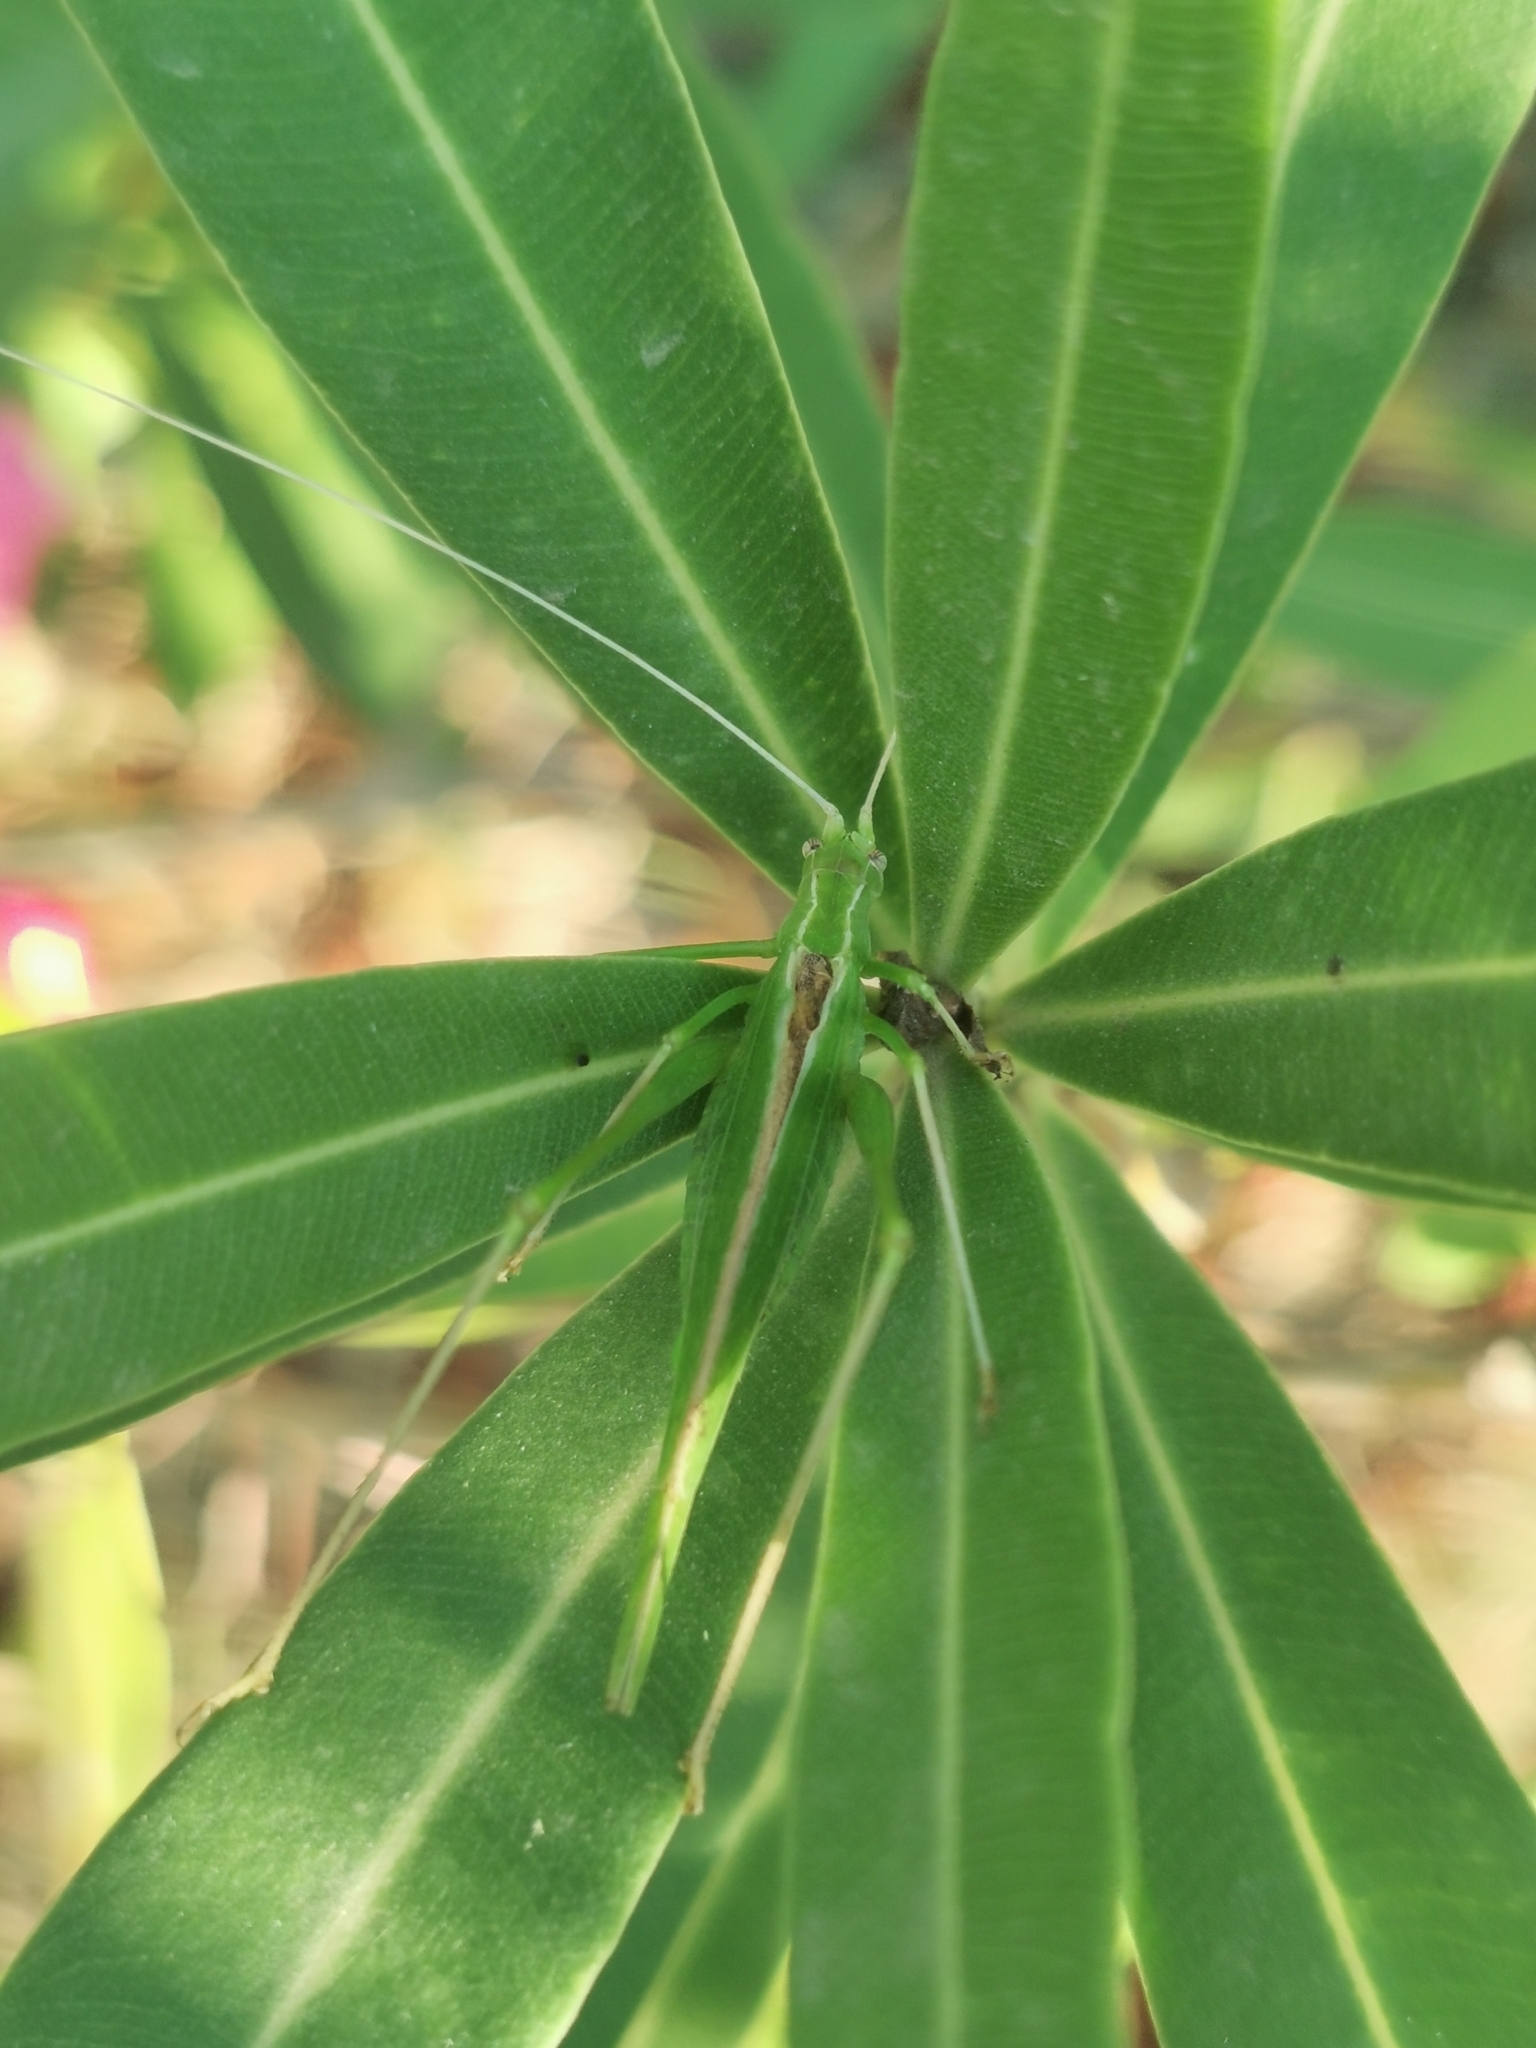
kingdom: Animalia
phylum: Arthropoda
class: Insecta
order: Orthoptera
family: Tettigoniidae
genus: Tylopsis
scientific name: Tylopsis lilifolia
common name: Lily bush-cricket
